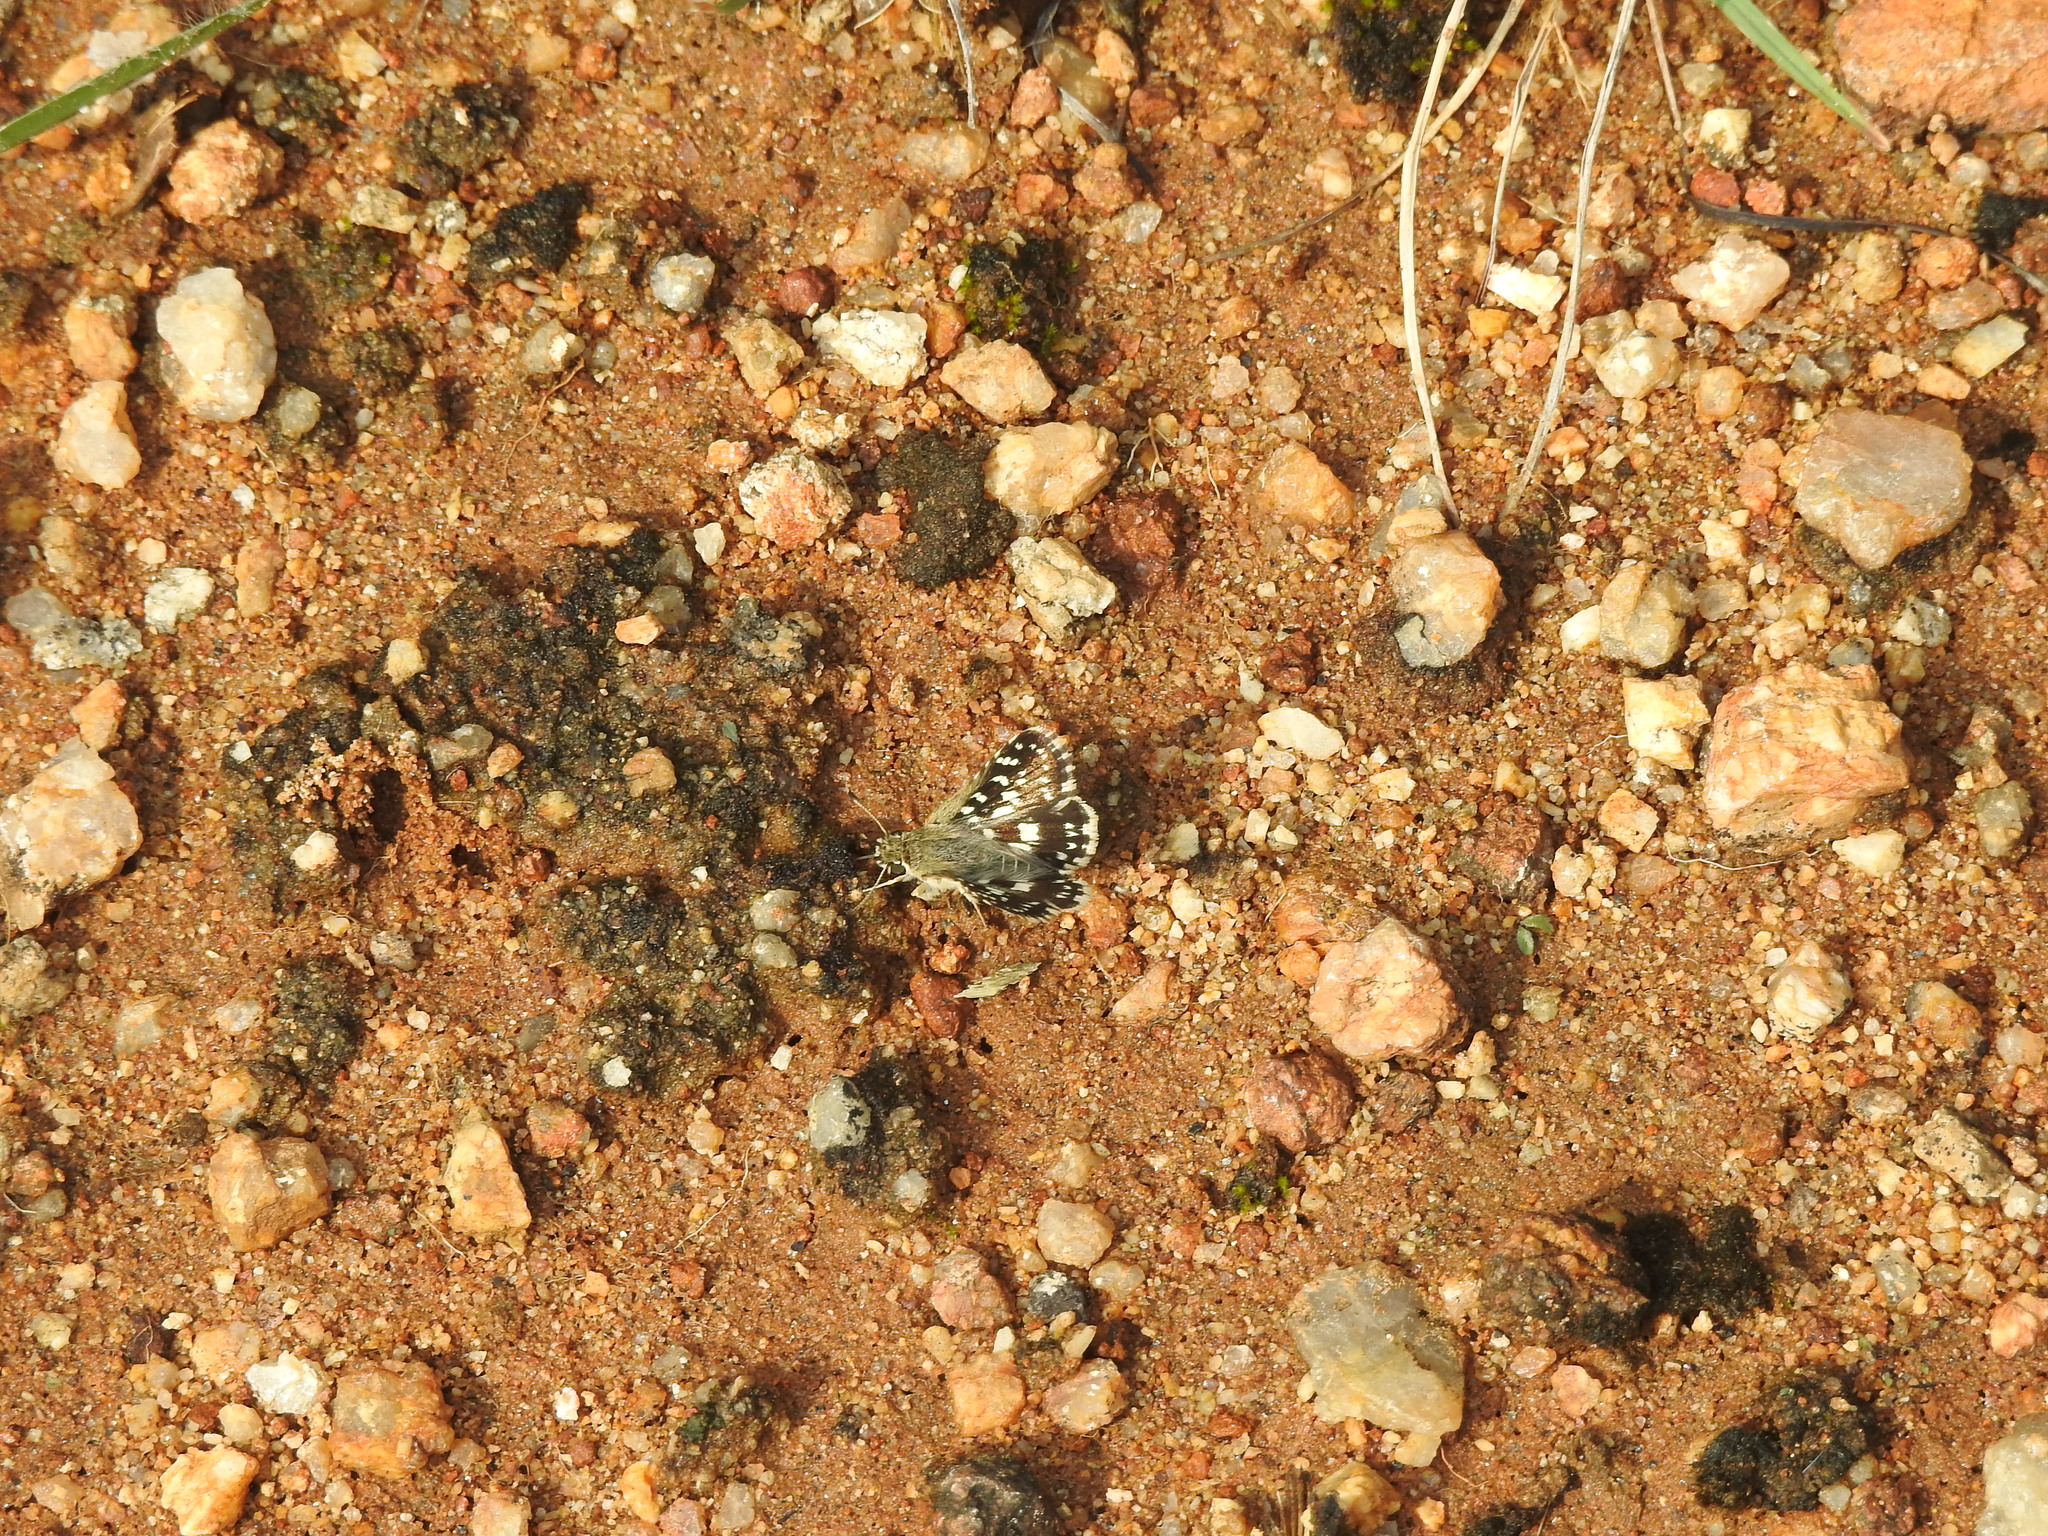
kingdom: Animalia
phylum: Arthropoda
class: Insecta
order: Lepidoptera
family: Hesperiidae
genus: Spialia
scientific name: Spialia galba
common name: Indian skipper
